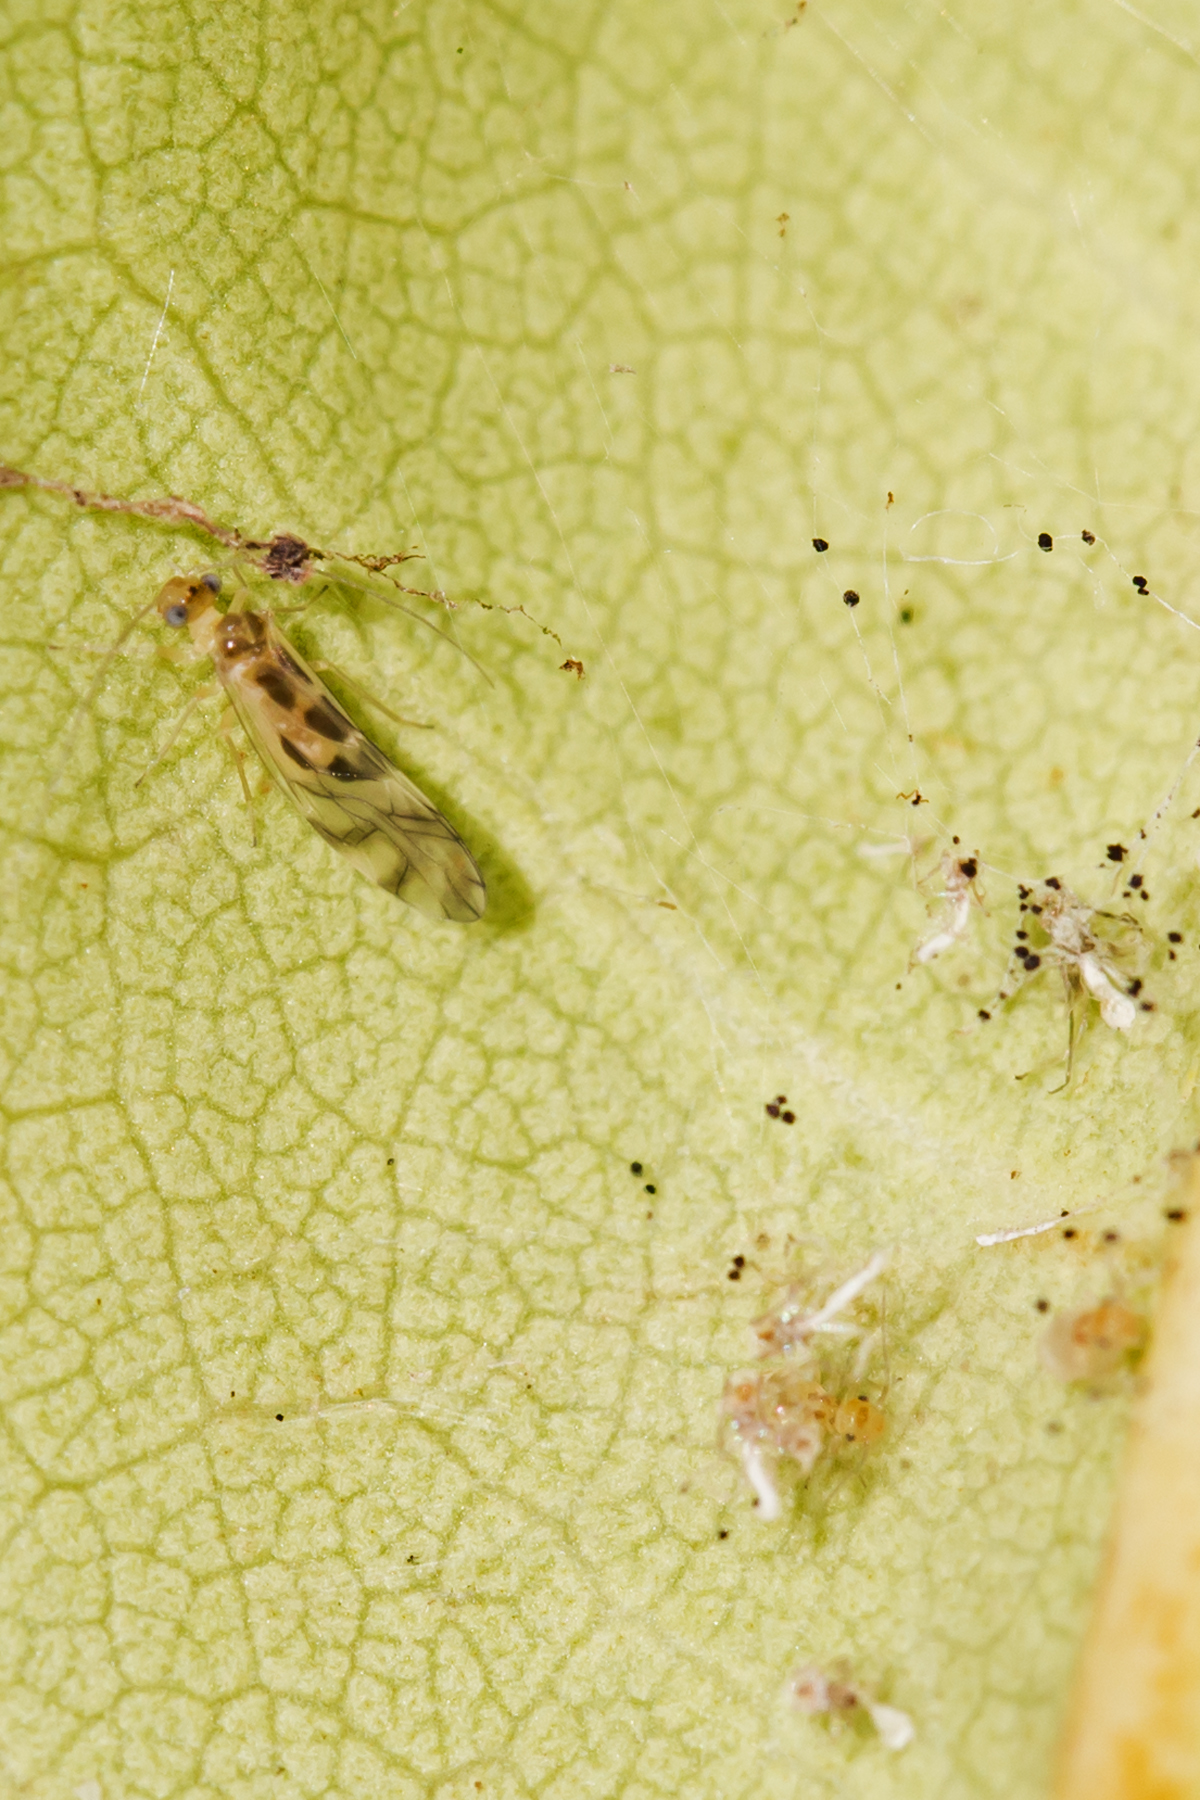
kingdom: Animalia
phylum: Arthropoda
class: Insecta
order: Psocodea
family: Stenopsocidae
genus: Graphopsocus
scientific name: Graphopsocus cruciatus
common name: Lizard bark louse
